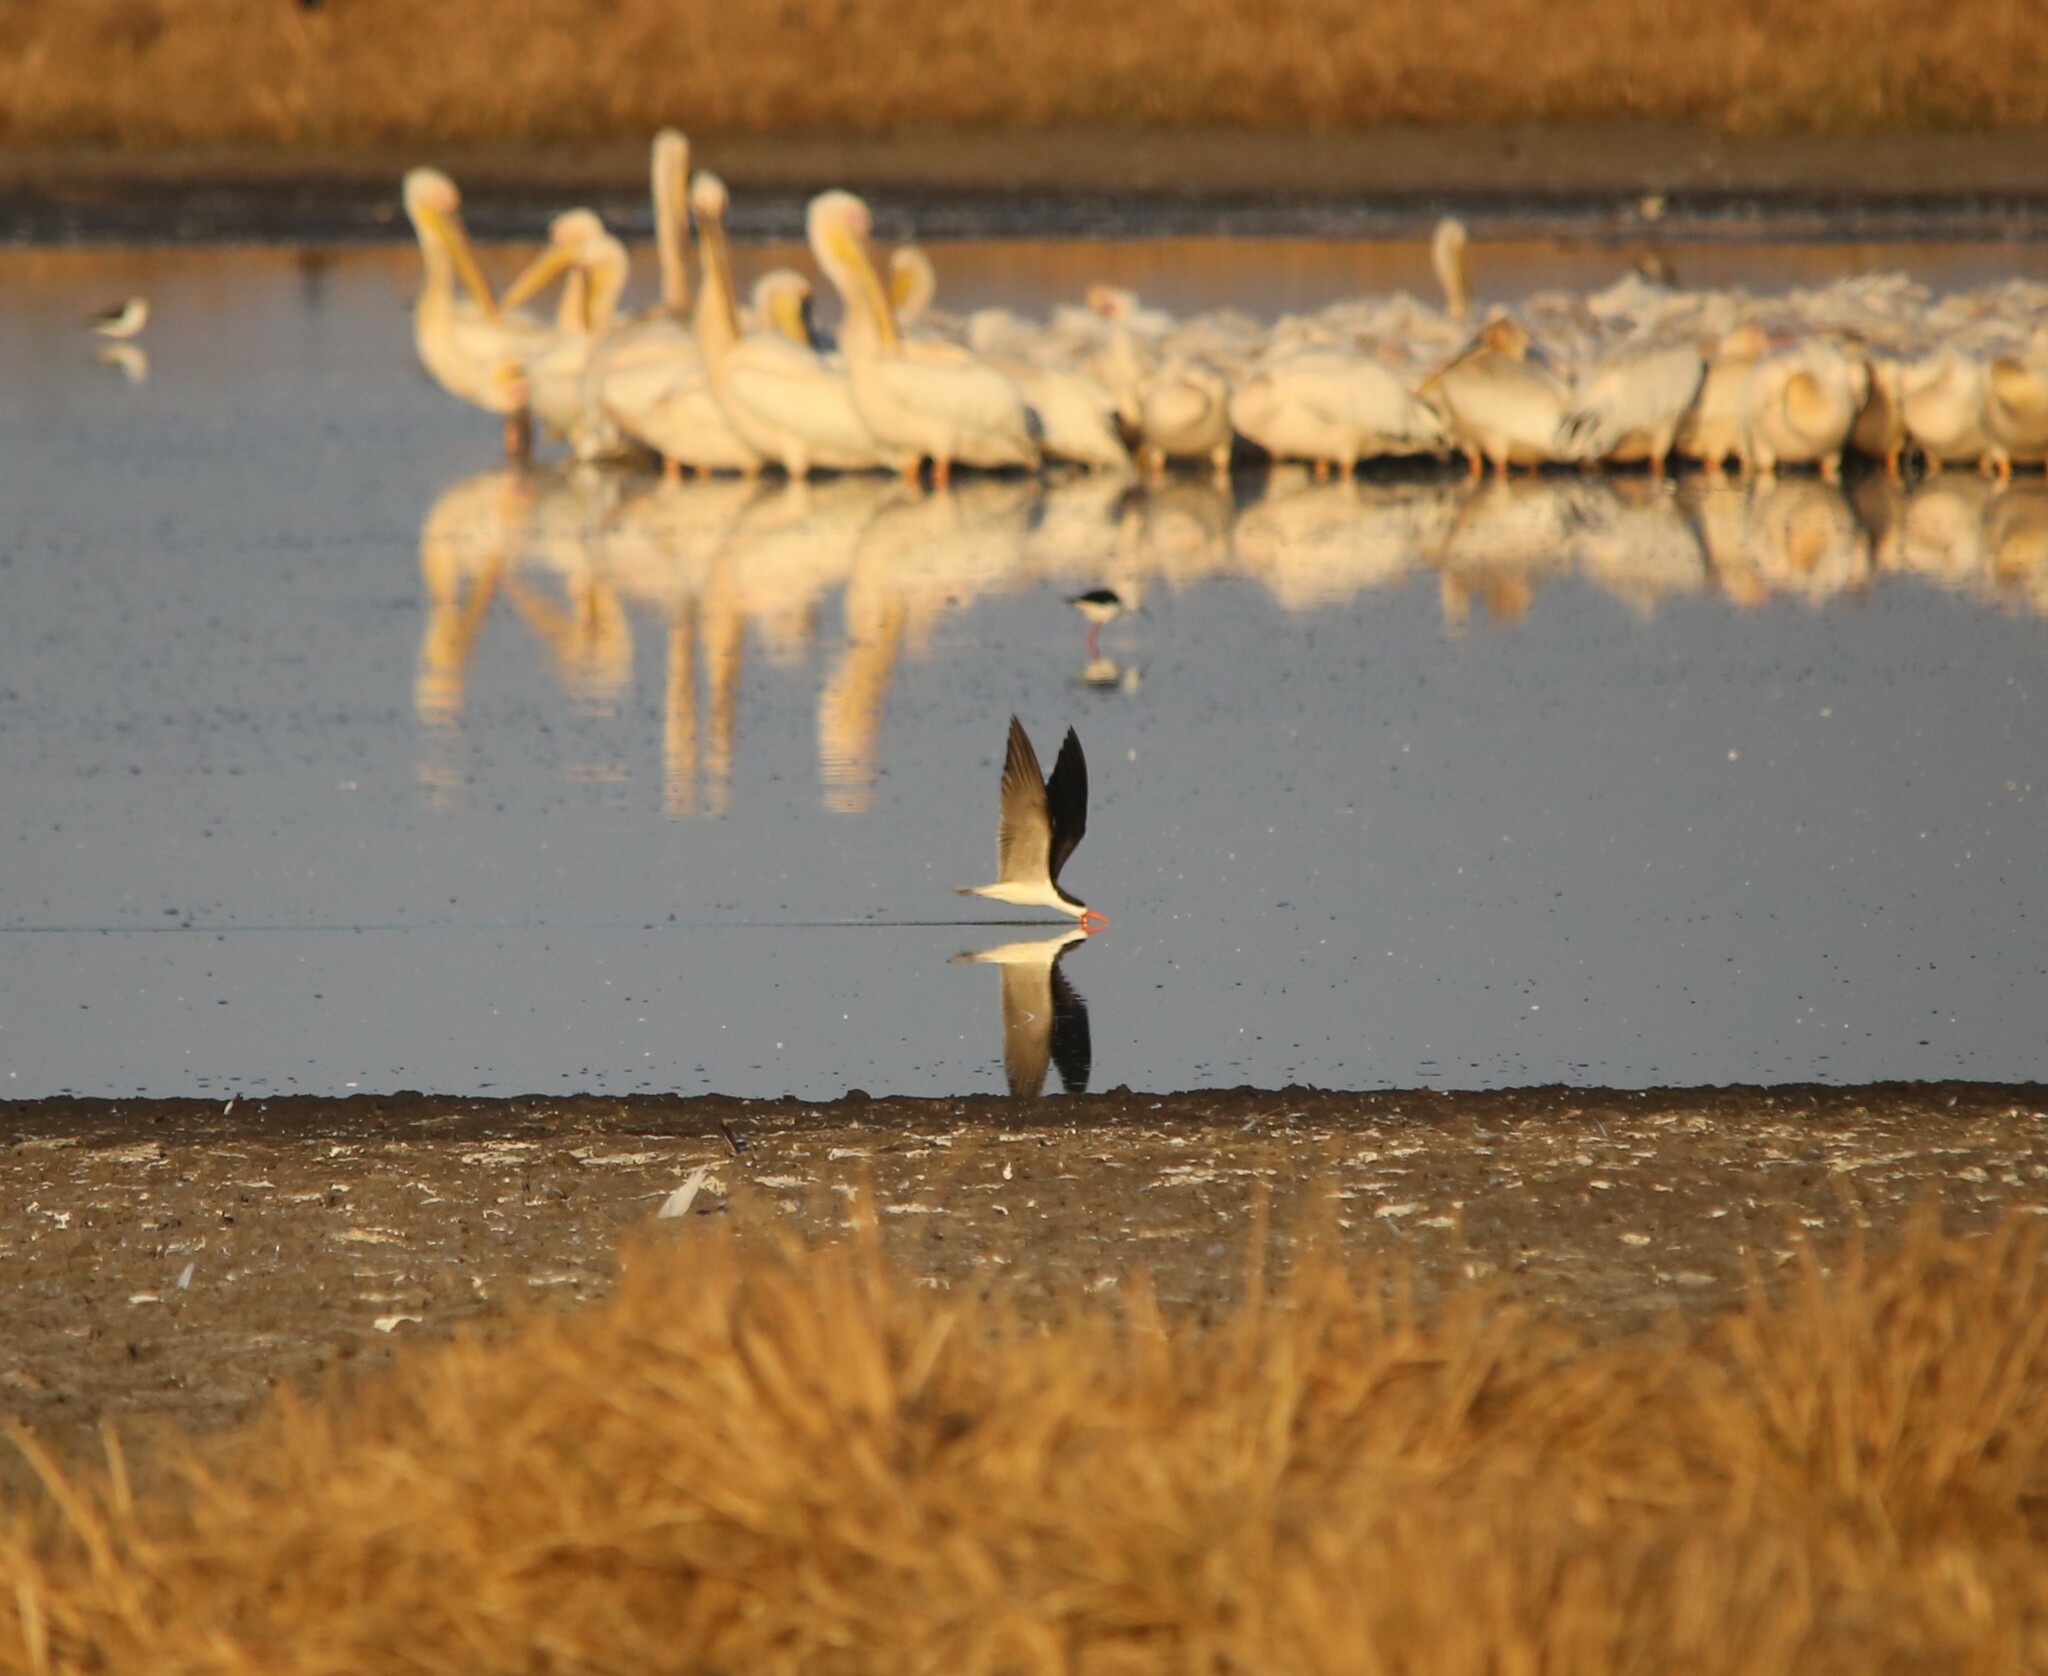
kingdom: Animalia
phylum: Chordata
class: Aves
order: Charadriiformes
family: Laridae
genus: Rynchops
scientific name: Rynchops flavirostris
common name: African skimmer
